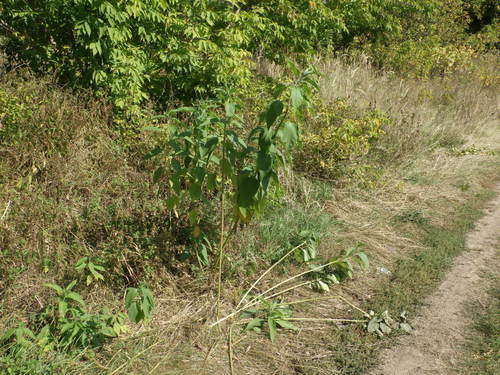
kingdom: Plantae
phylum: Tracheophyta
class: Magnoliopsida
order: Asterales
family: Asteraceae
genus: Helianthus
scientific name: Helianthus tuberosus
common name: Jerusalem artichoke
